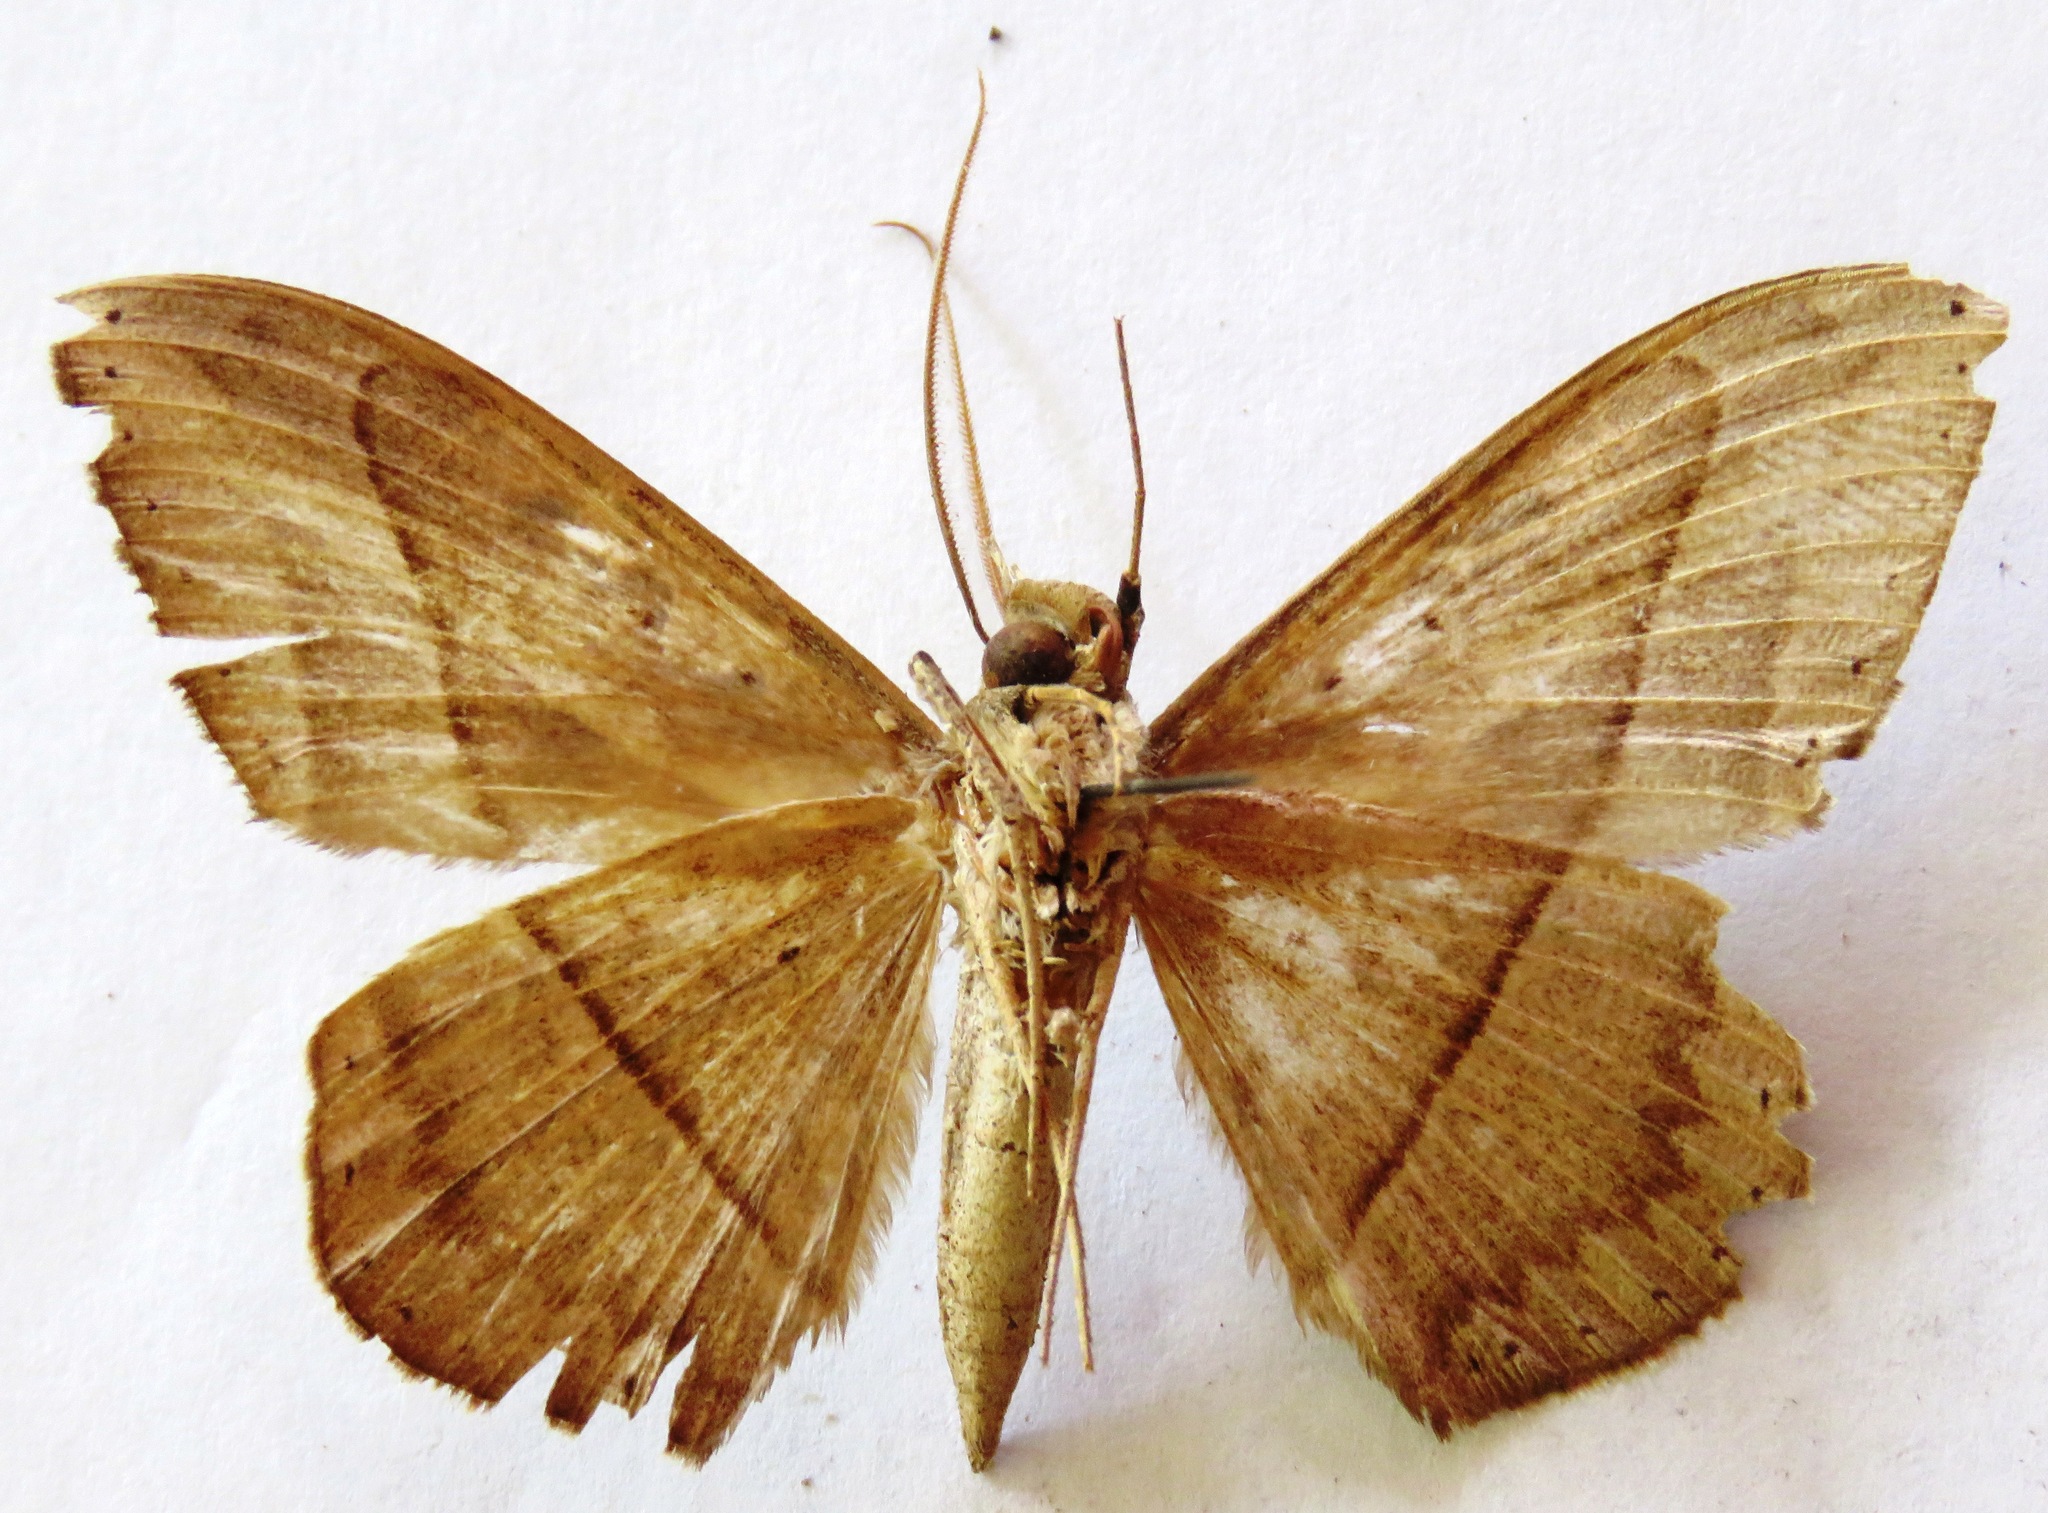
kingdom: Animalia
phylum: Arthropoda
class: Insecta
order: Lepidoptera
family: Erebidae
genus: Hemeroblemma
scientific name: Hemeroblemma opigena
